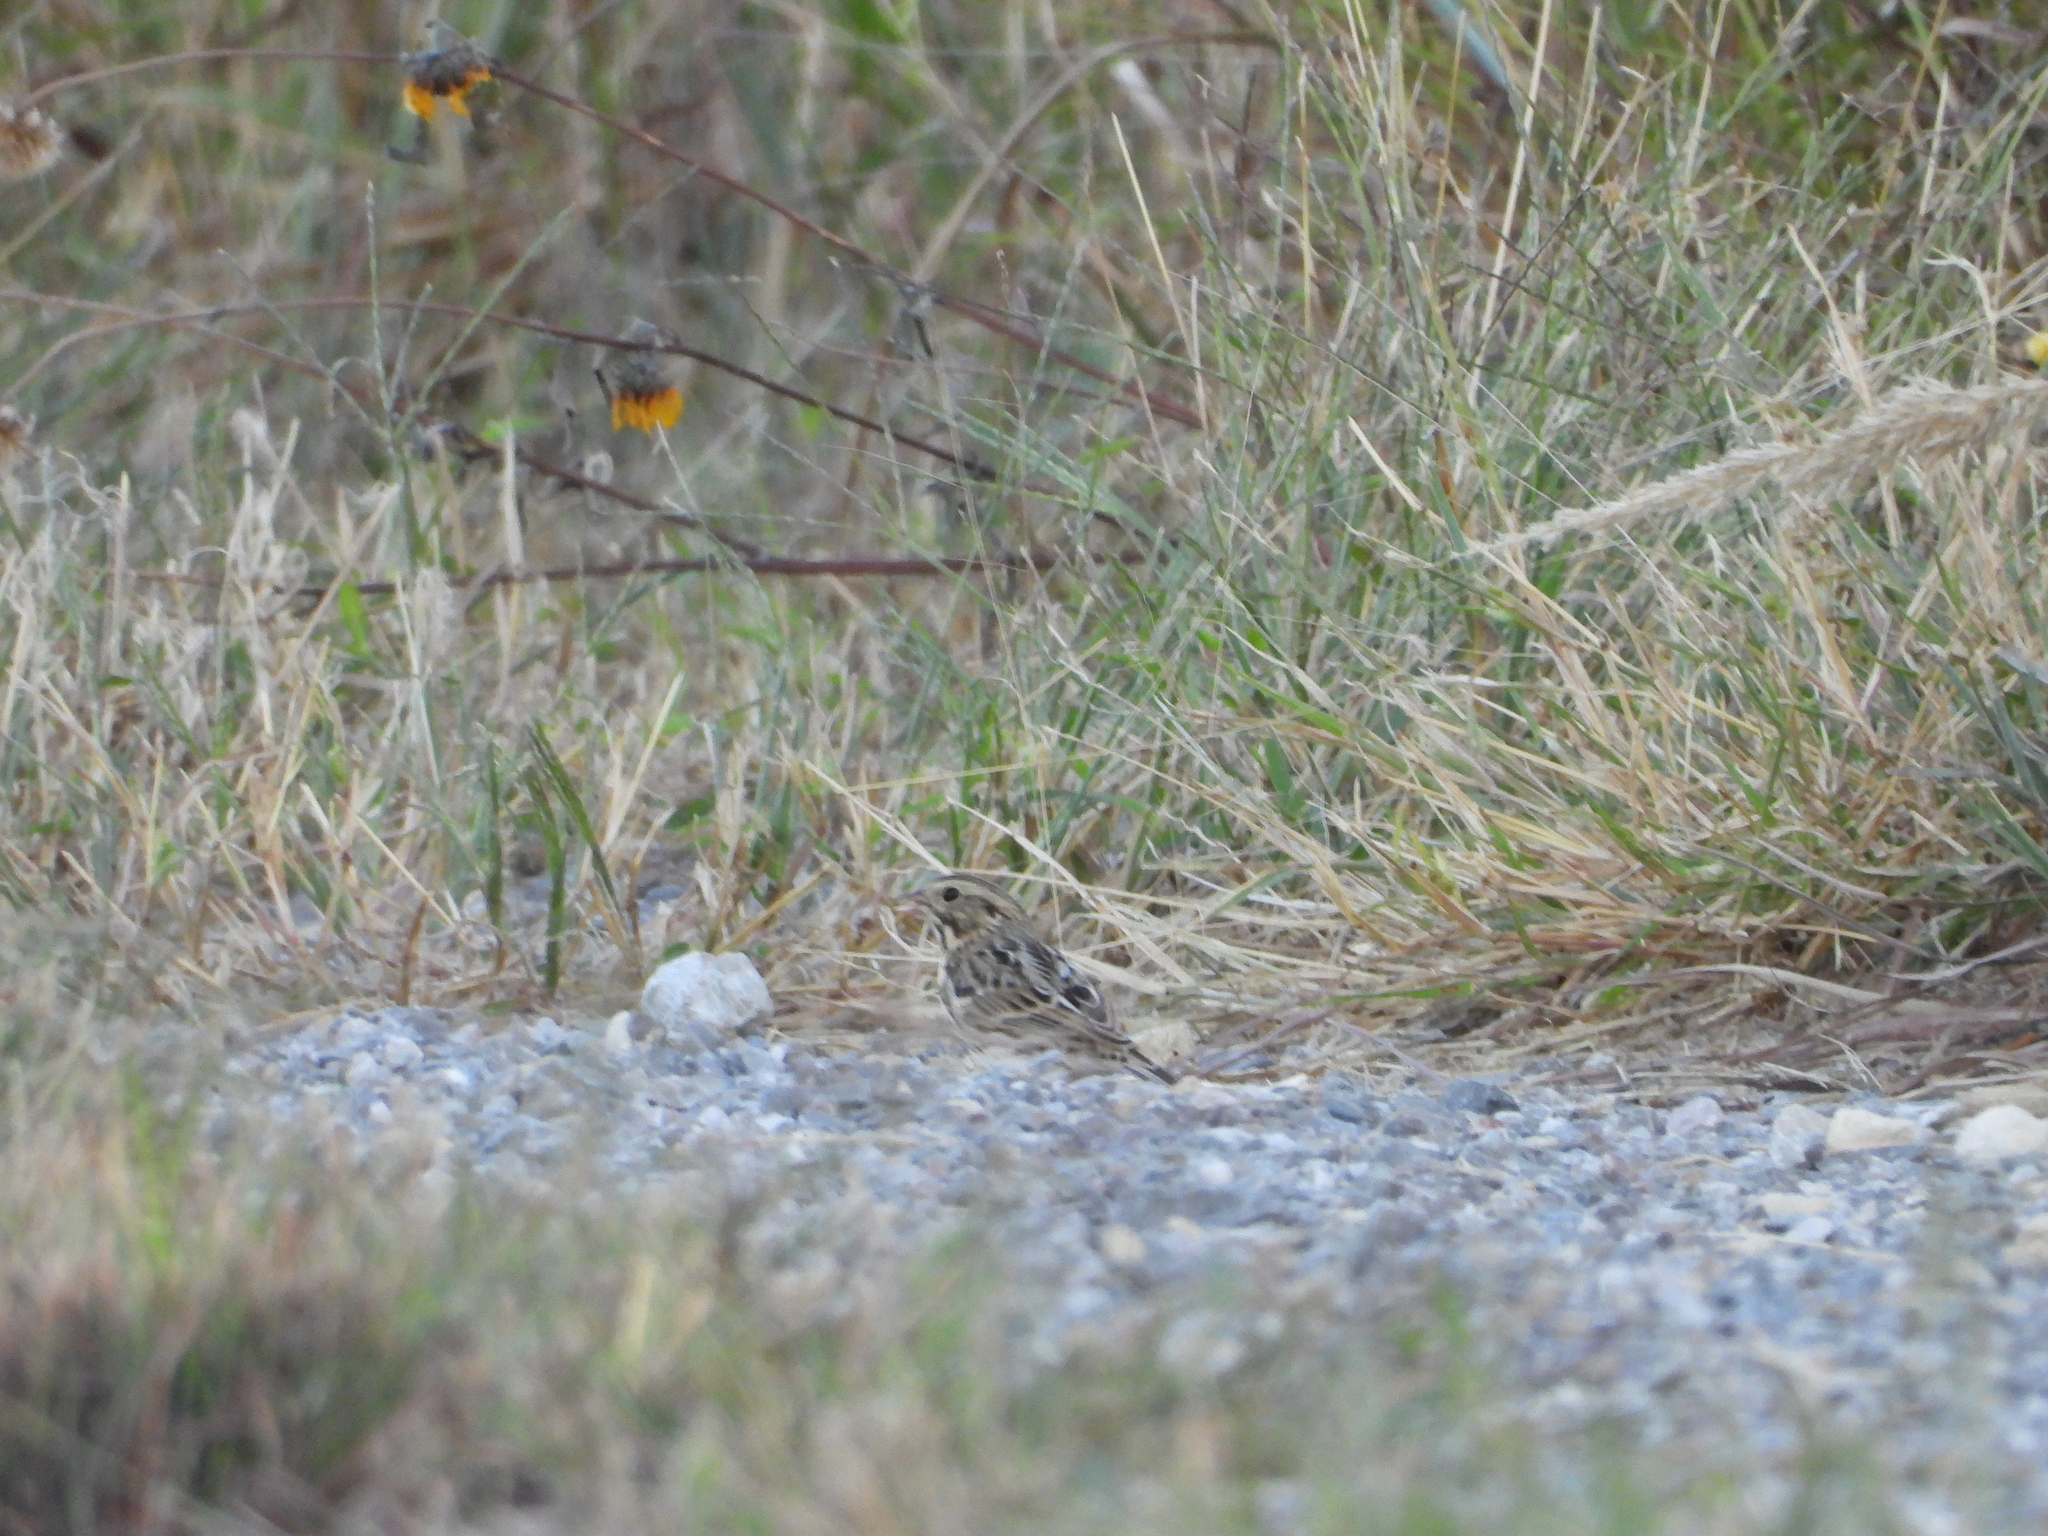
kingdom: Animalia
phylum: Chordata
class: Aves
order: Passeriformes
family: Passerellidae
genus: Passerculus
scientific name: Passerculus sandwichensis
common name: Savannah sparrow
